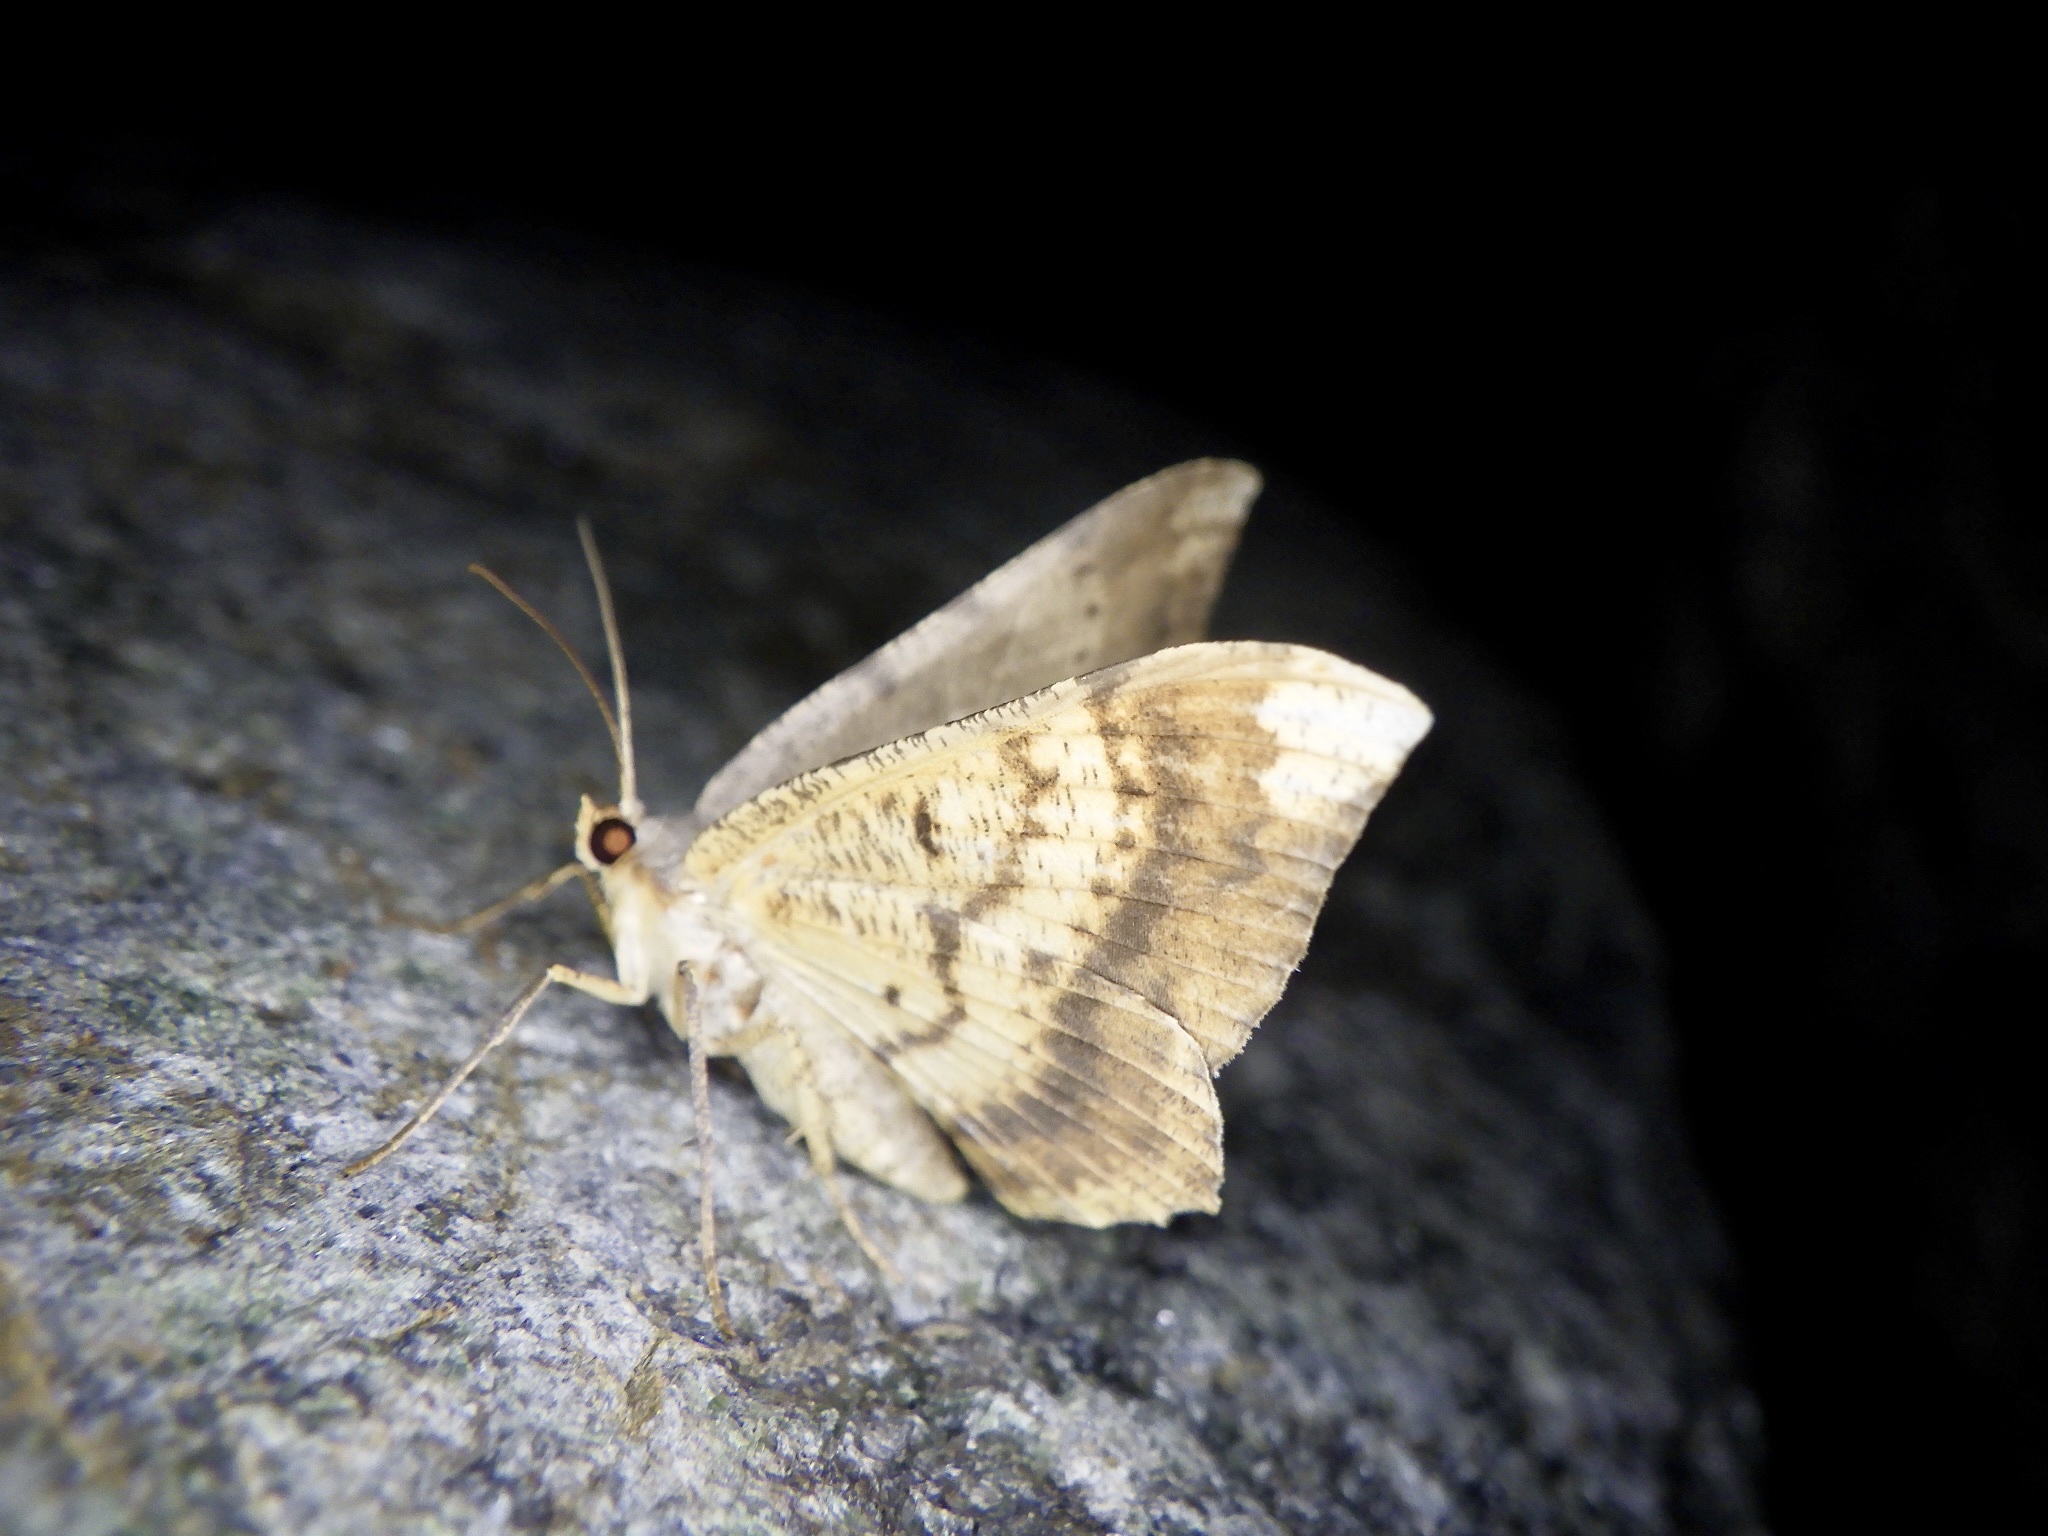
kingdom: Animalia
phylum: Arthropoda
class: Insecta
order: Lepidoptera
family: Geometridae
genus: Luxiaria
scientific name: Luxiaria amasa
